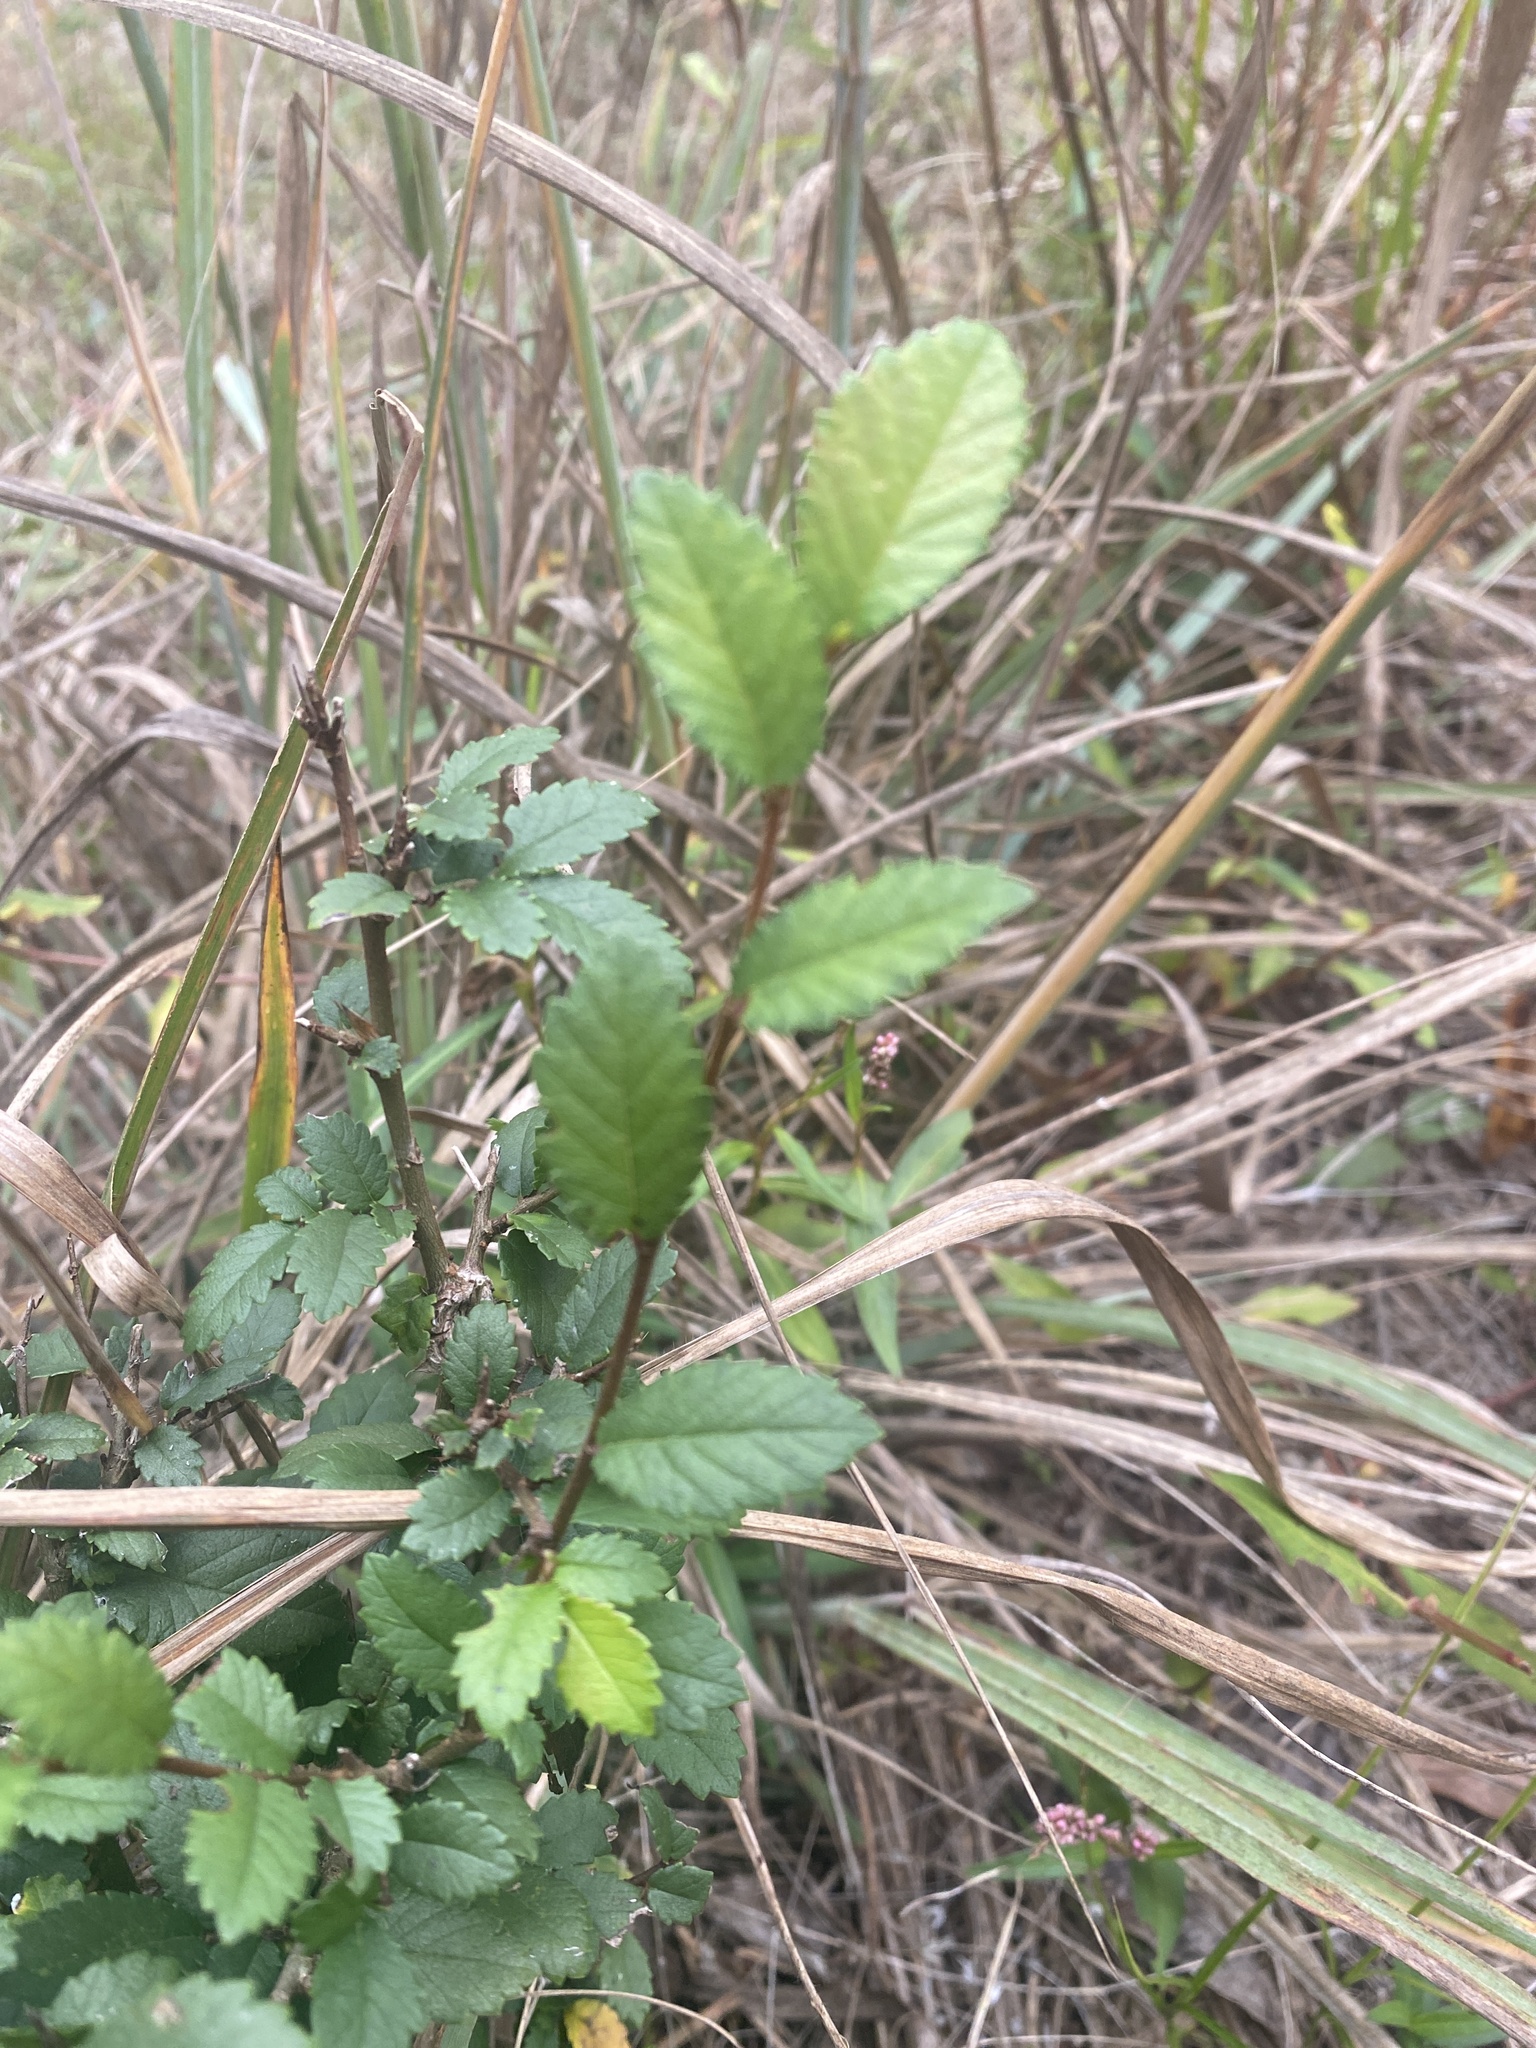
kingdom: Plantae
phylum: Tracheophyta
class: Magnoliopsida
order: Rosales
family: Ulmaceae
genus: Ulmus
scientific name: Ulmus pumila
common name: Siberian elm
